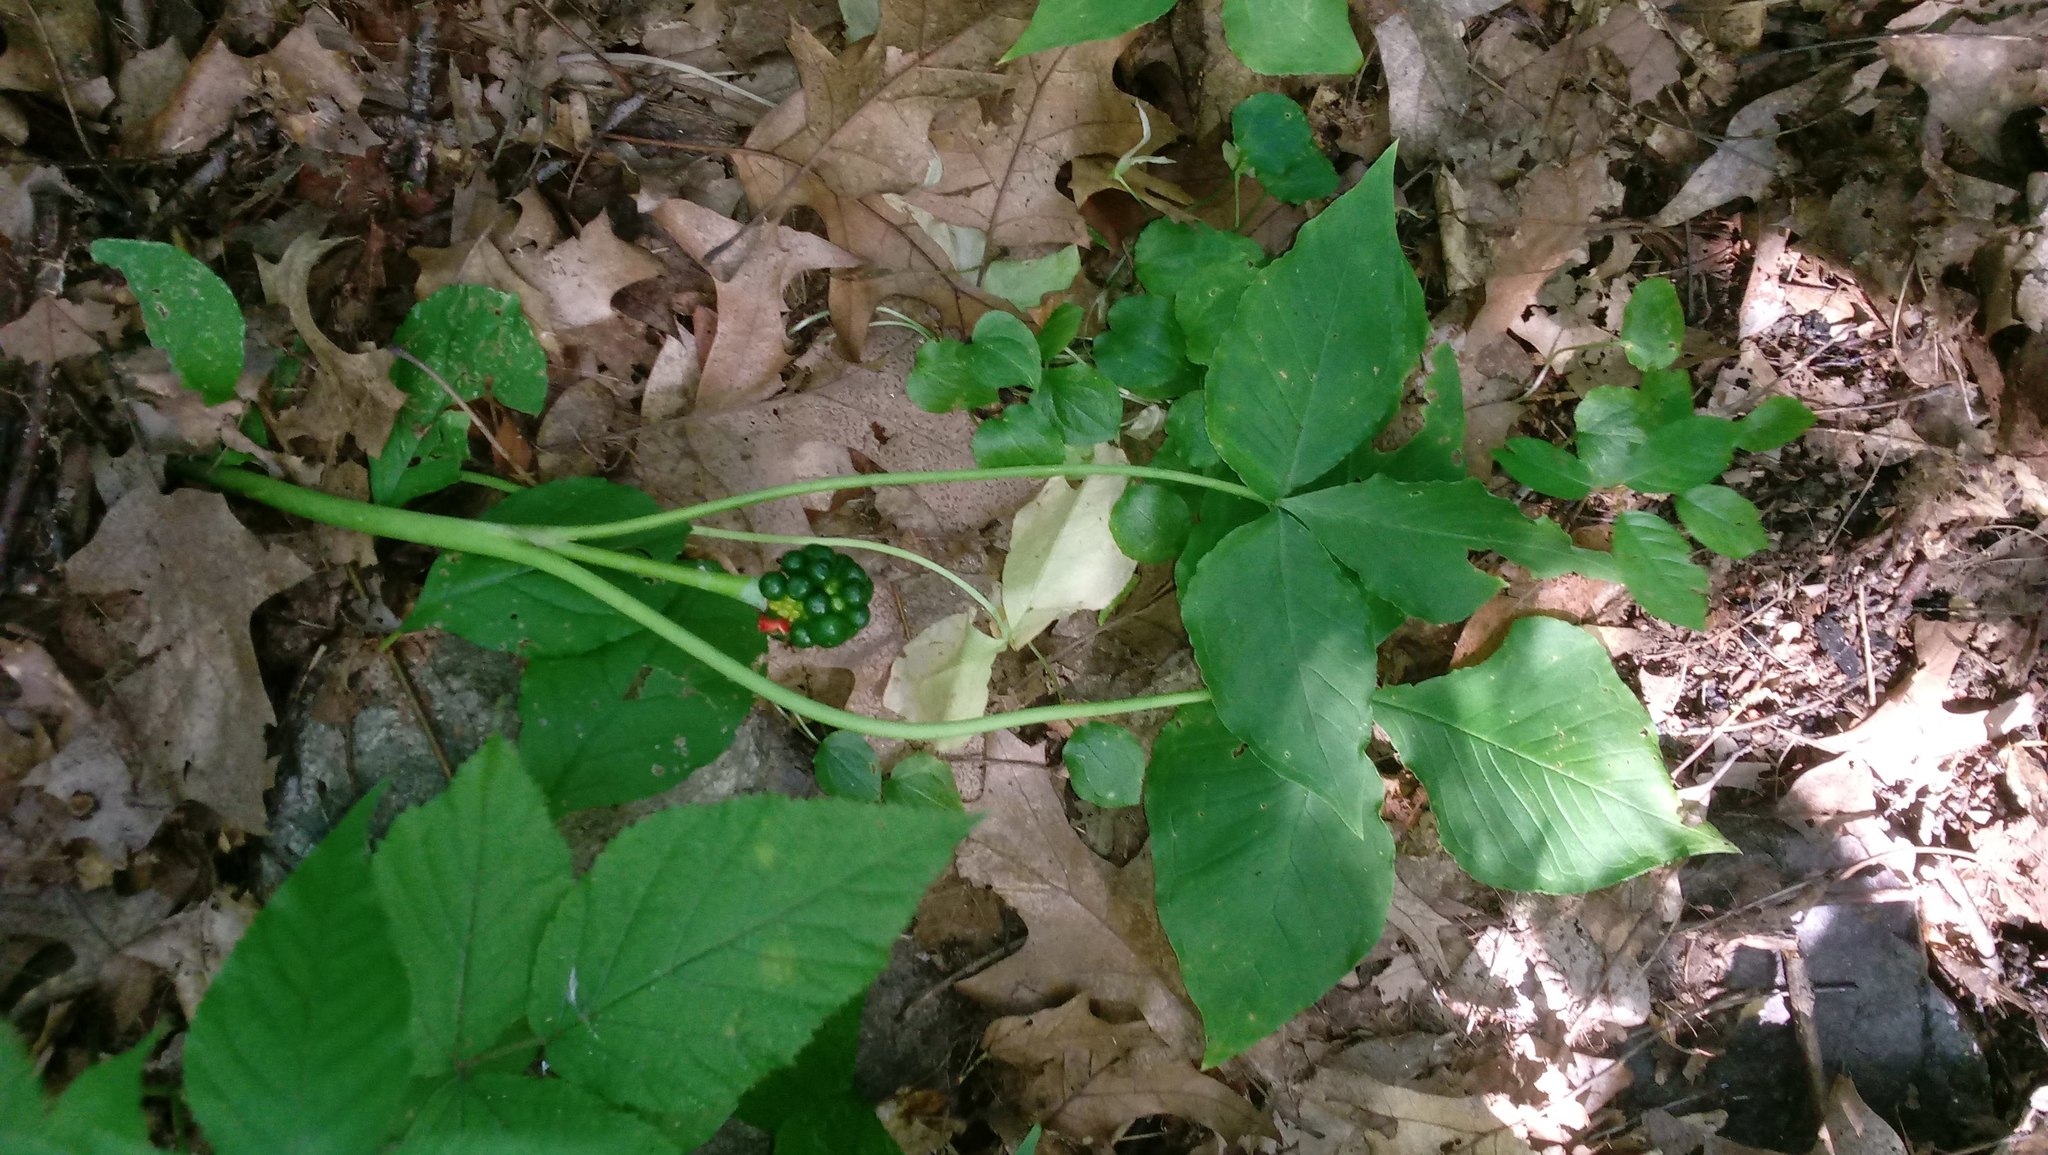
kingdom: Plantae
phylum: Tracheophyta
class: Liliopsida
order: Alismatales
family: Araceae
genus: Arisaema
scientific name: Arisaema triphyllum
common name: Jack-in-the-pulpit
